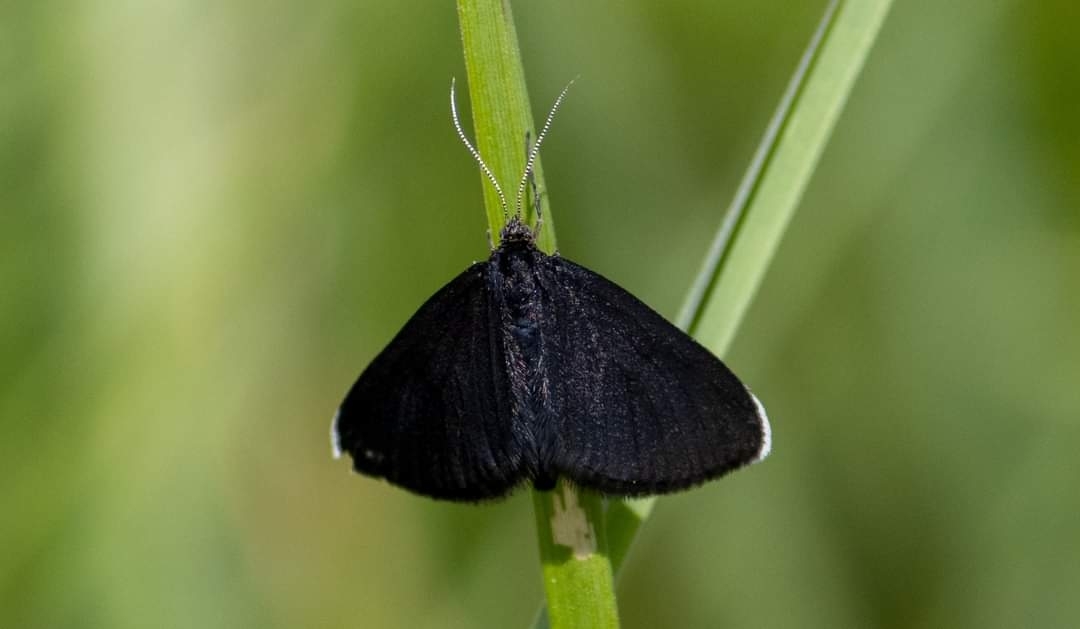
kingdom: Animalia
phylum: Arthropoda
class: Insecta
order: Lepidoptera
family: Geometridae
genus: Odezia
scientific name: Odezia atrata
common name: Chimney sweeper
